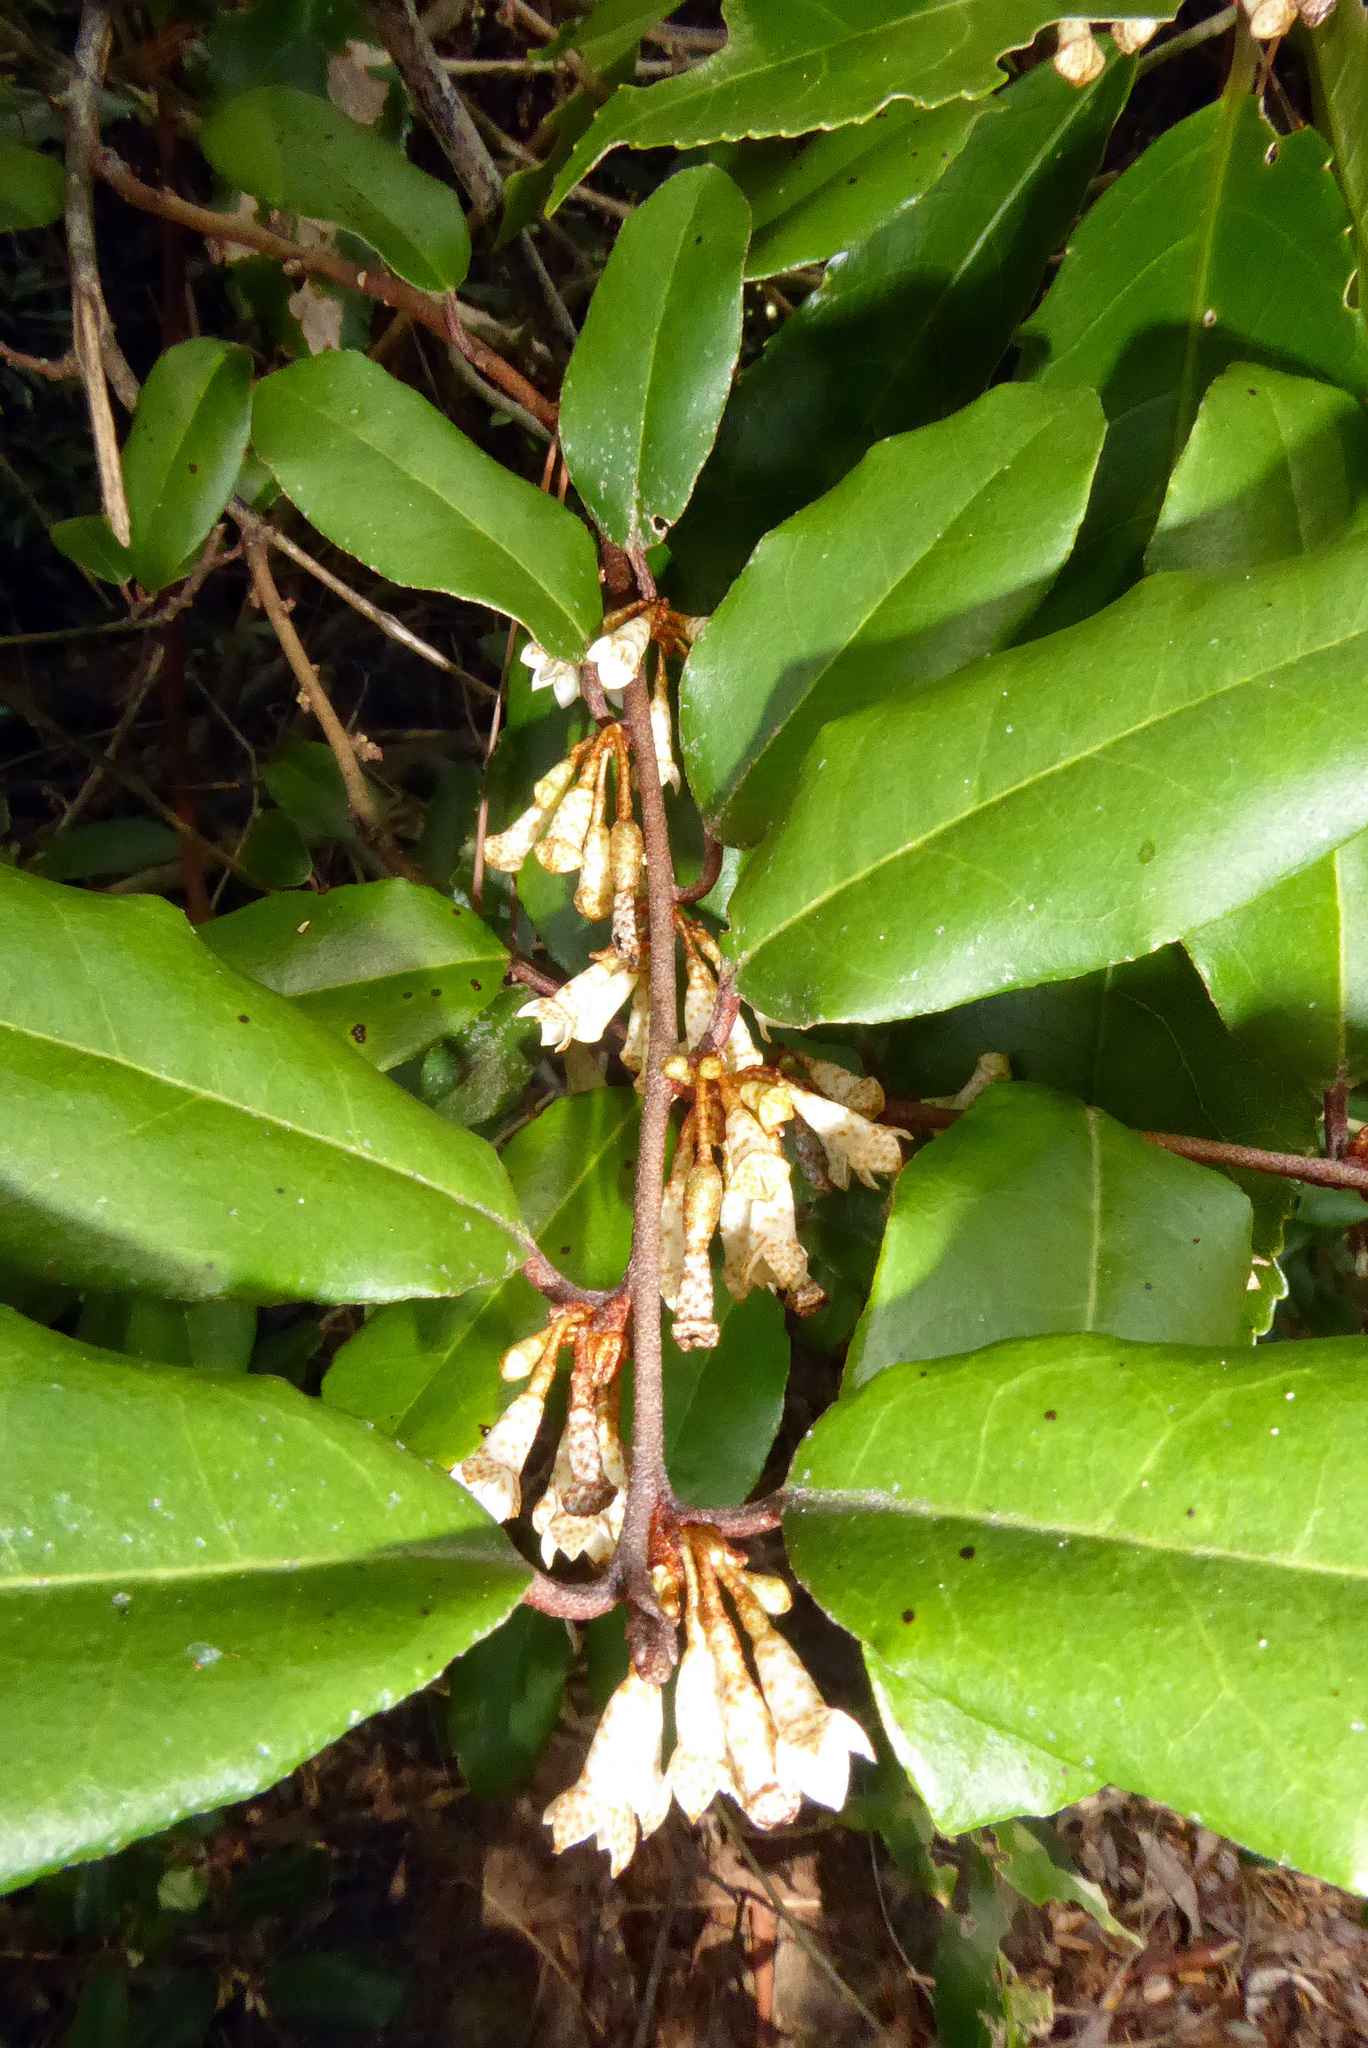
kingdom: Plantae
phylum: Tracheophyta
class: Magnoliopsida
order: Rosales
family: Elaeagnaceae
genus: Elaeagnus
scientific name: Elaeagnus reflexa
